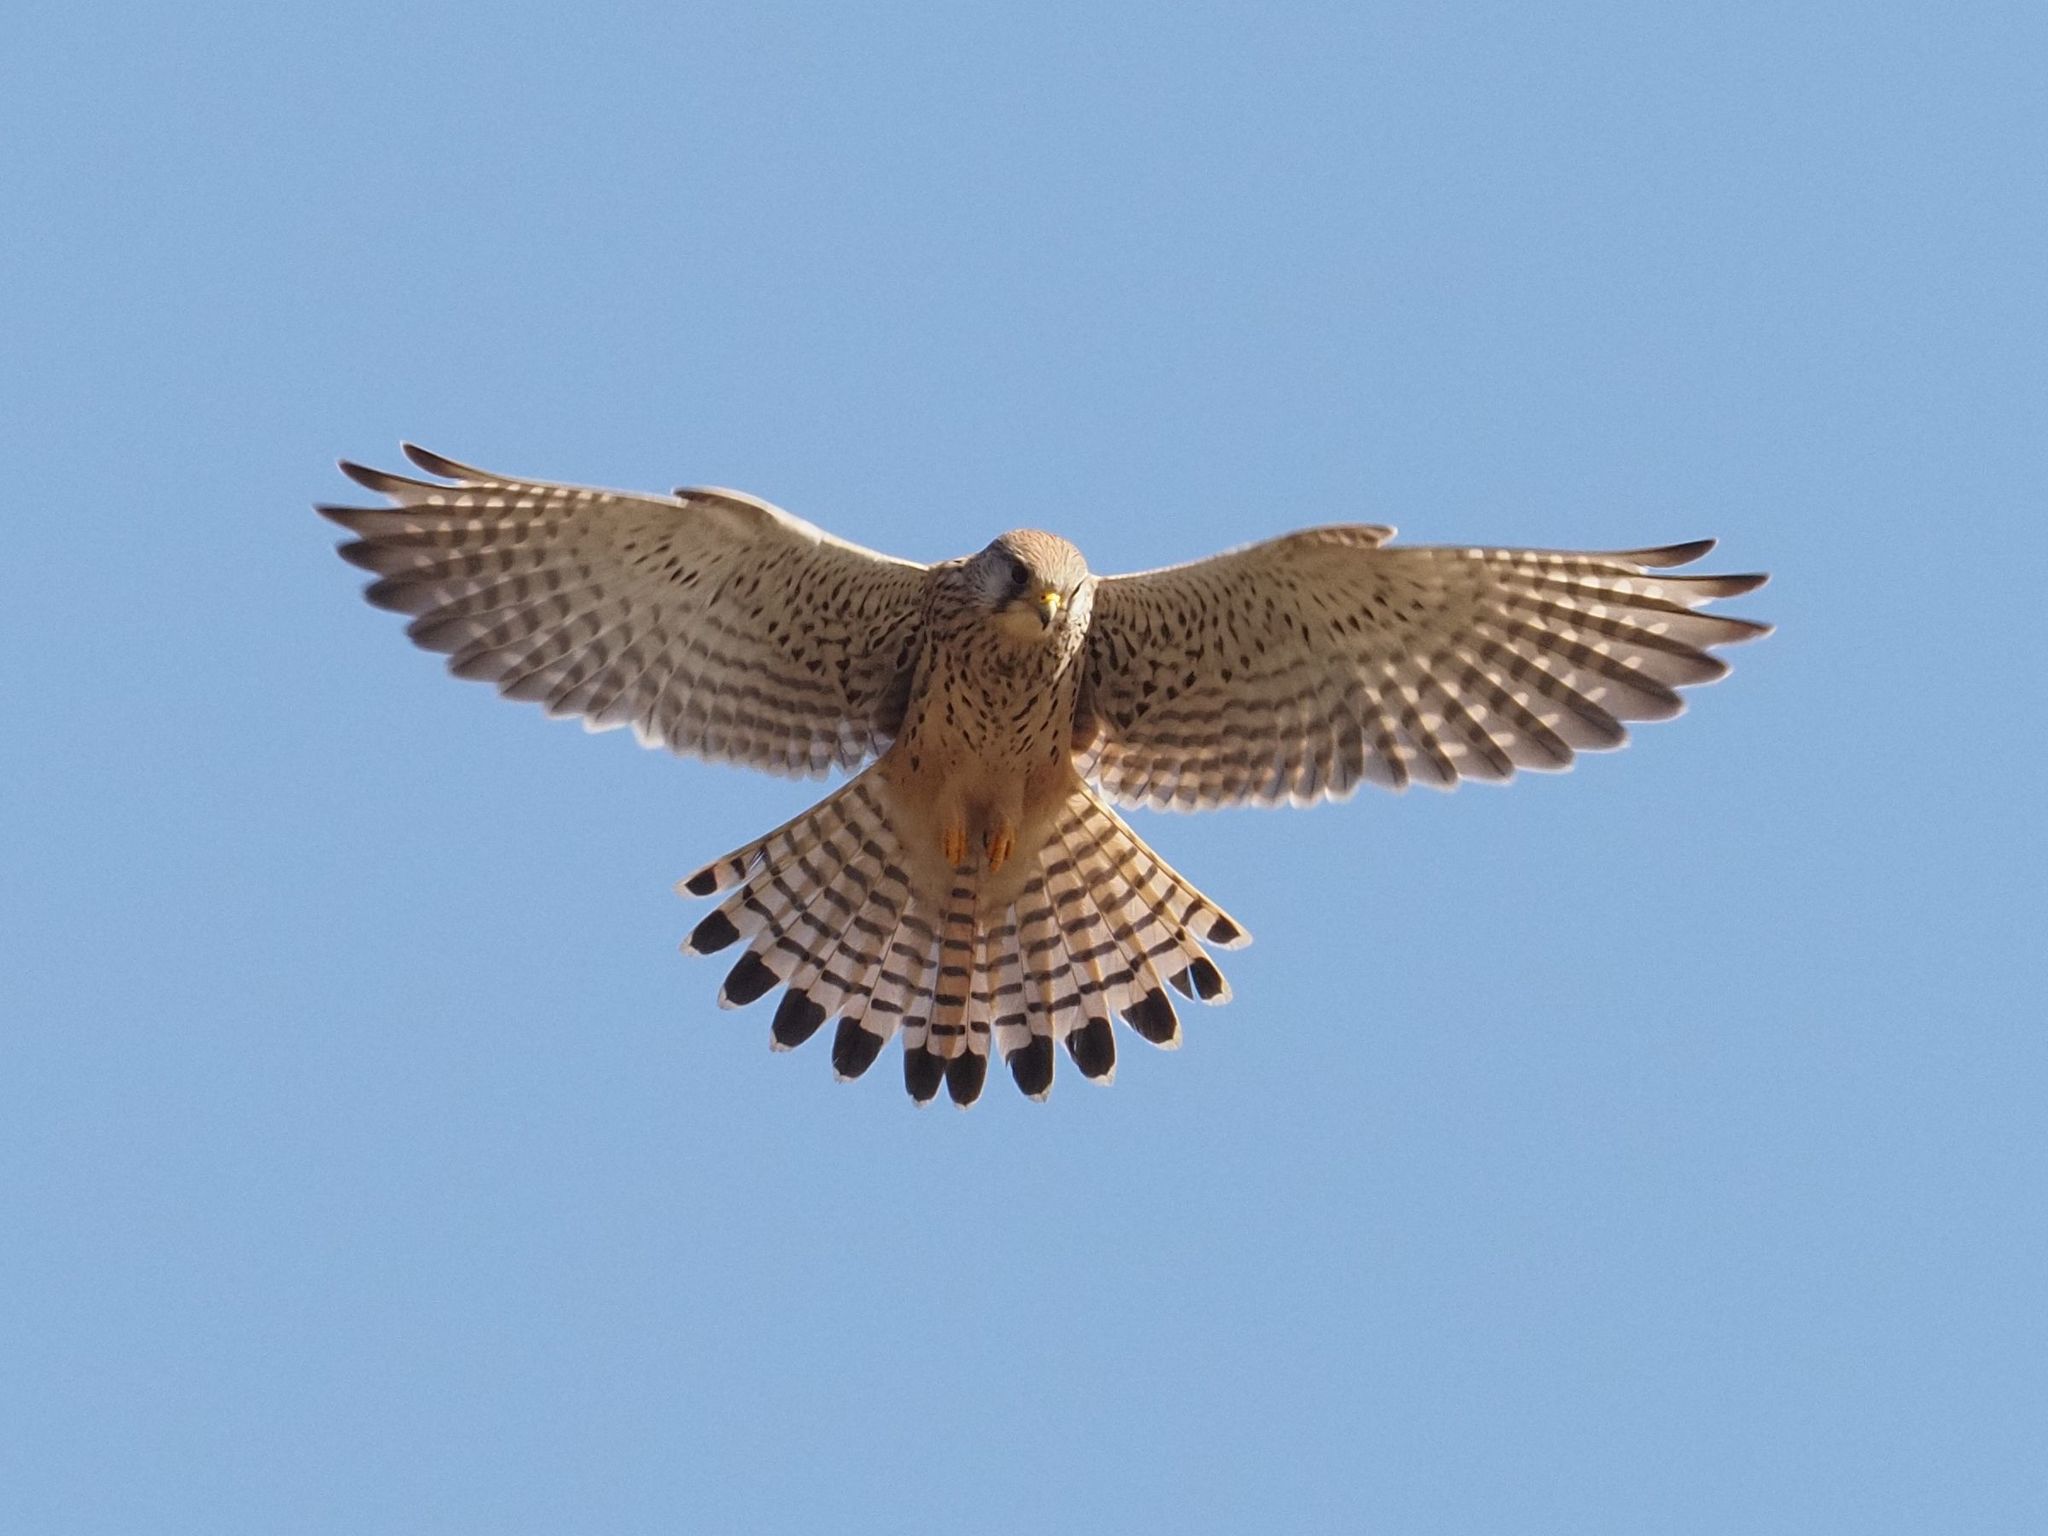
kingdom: Animalia
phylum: Chordata
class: Aves
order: Falconiformes
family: Falconidae
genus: Falco
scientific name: Falco tinnunculus
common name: Common kestrel
